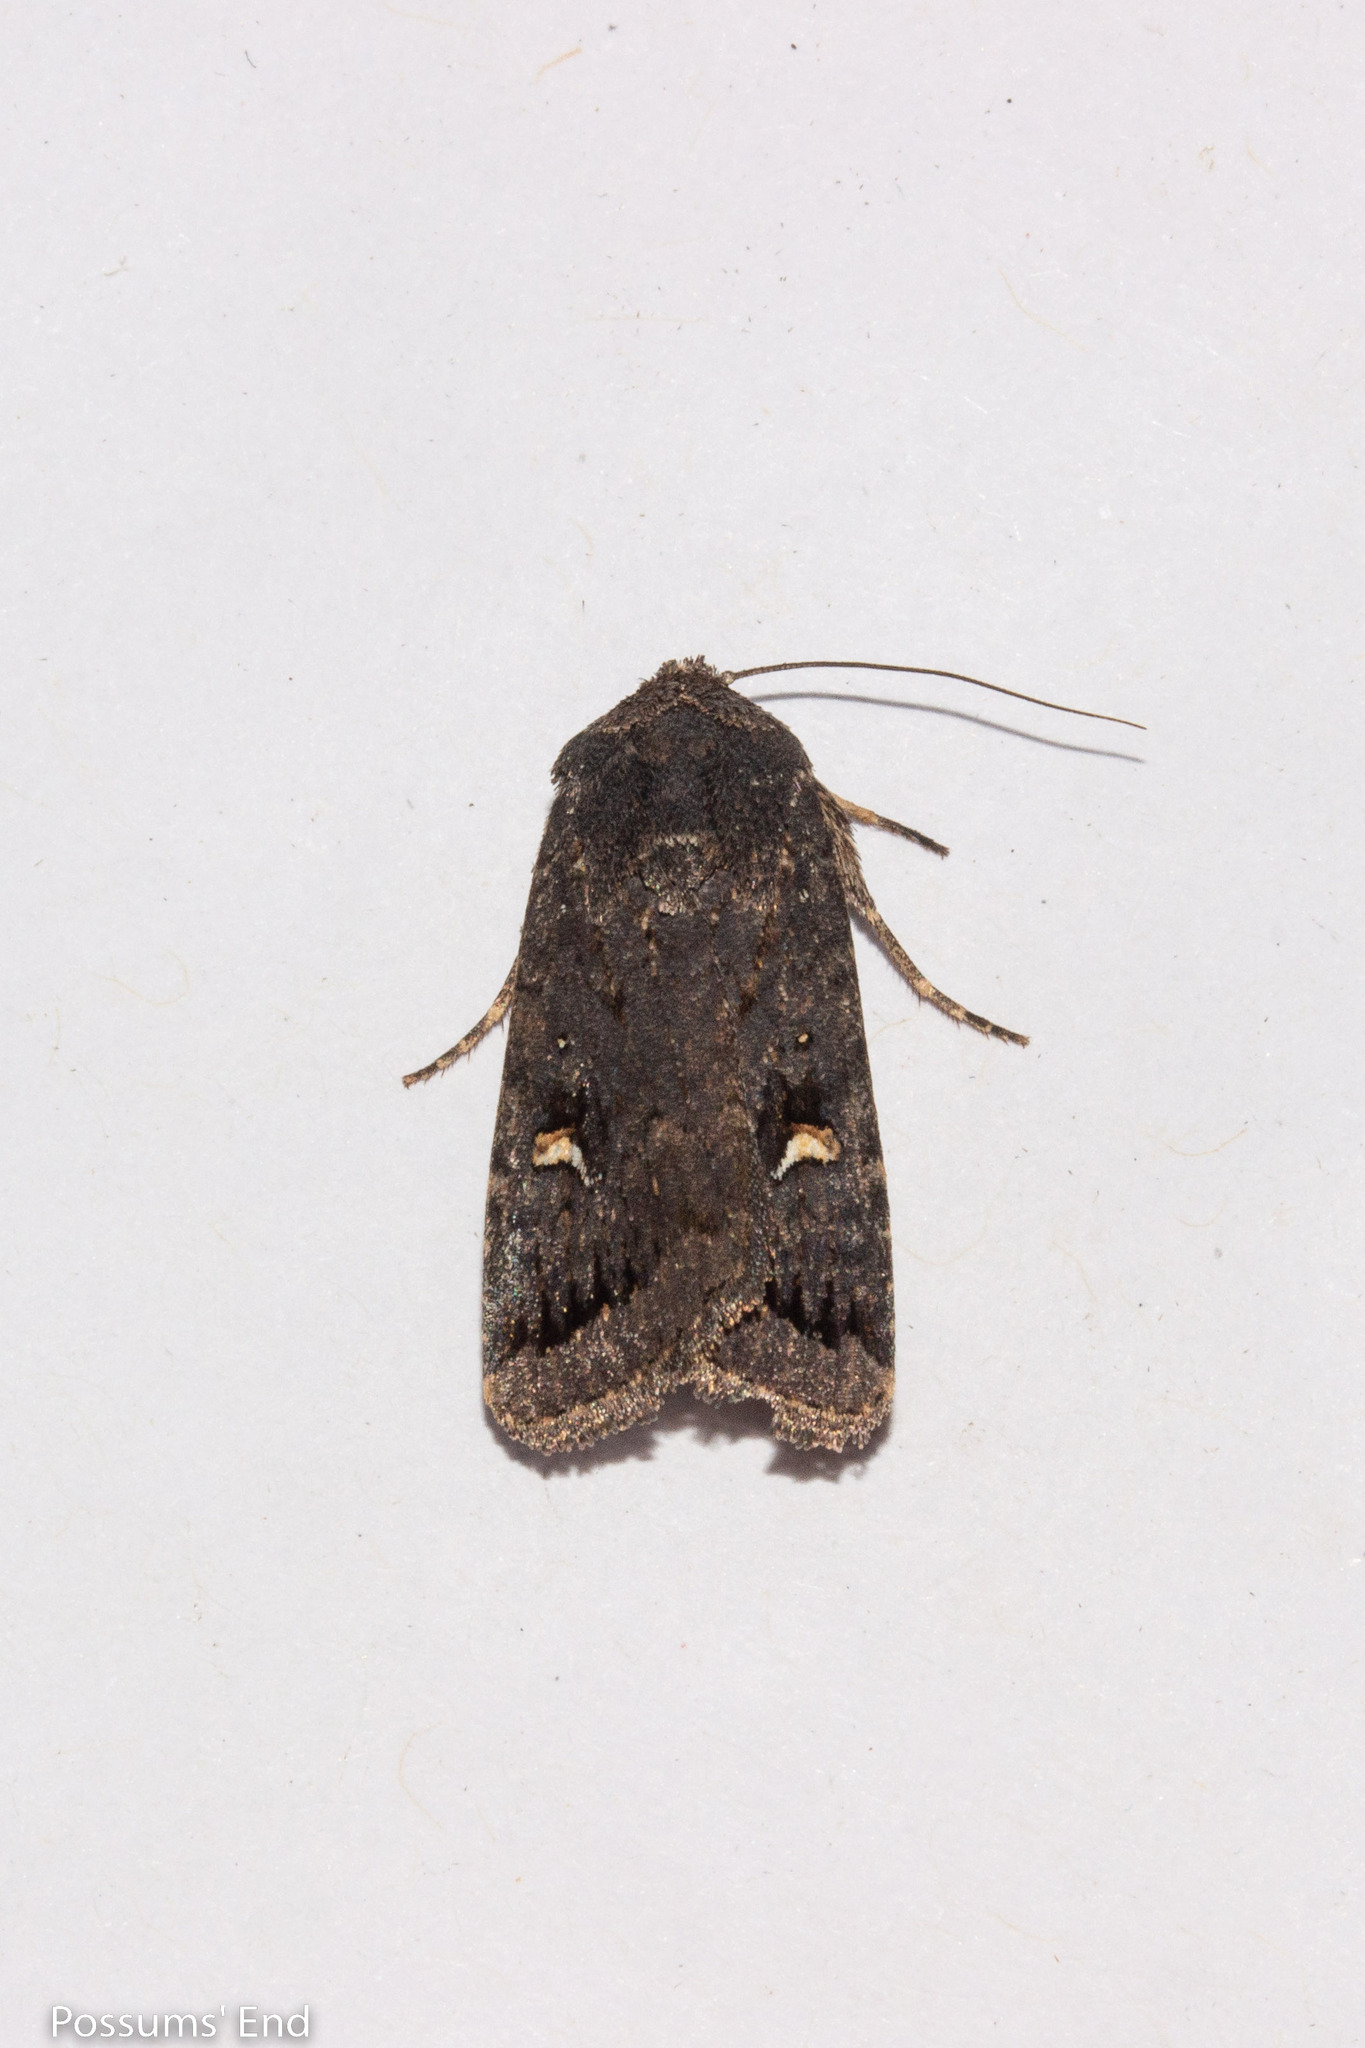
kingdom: Animalia
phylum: Arthropoda
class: Insecta
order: Lepidoptera
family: Noctuidae
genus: Proteuxoa
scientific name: Proteuxoa comma
